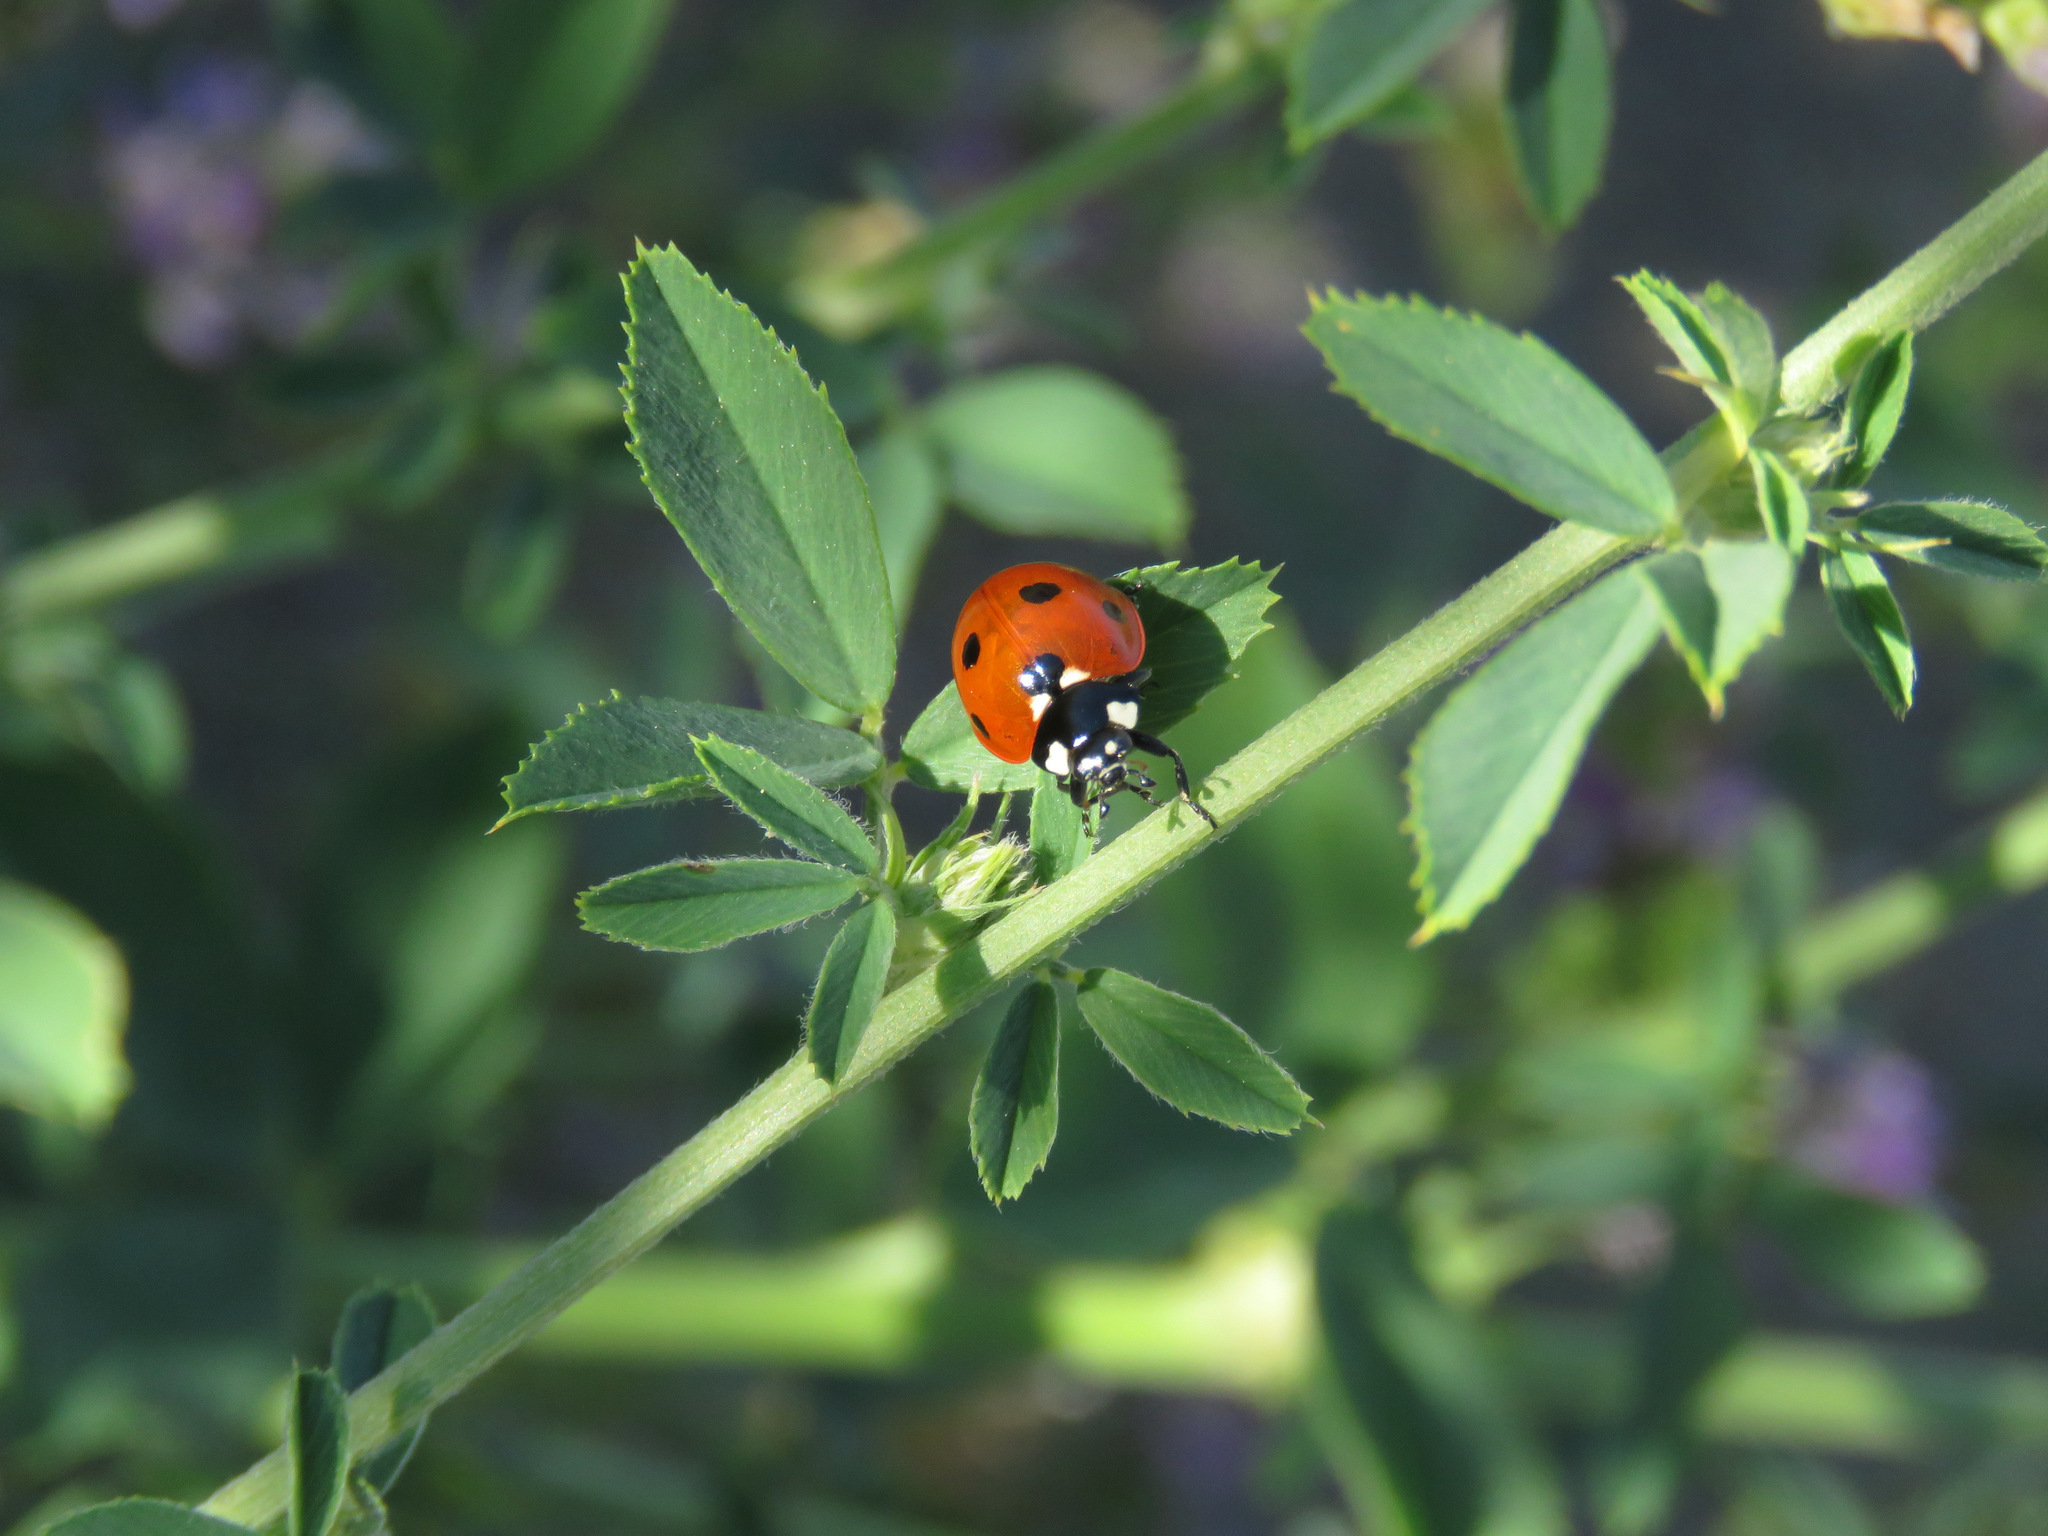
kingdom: Animalia
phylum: Arthropoda
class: Insecta
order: Coleoptera
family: Coccinellidae
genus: Coccinella
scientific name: Coccinella septempunctata
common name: Sevenspotted lady beetle
